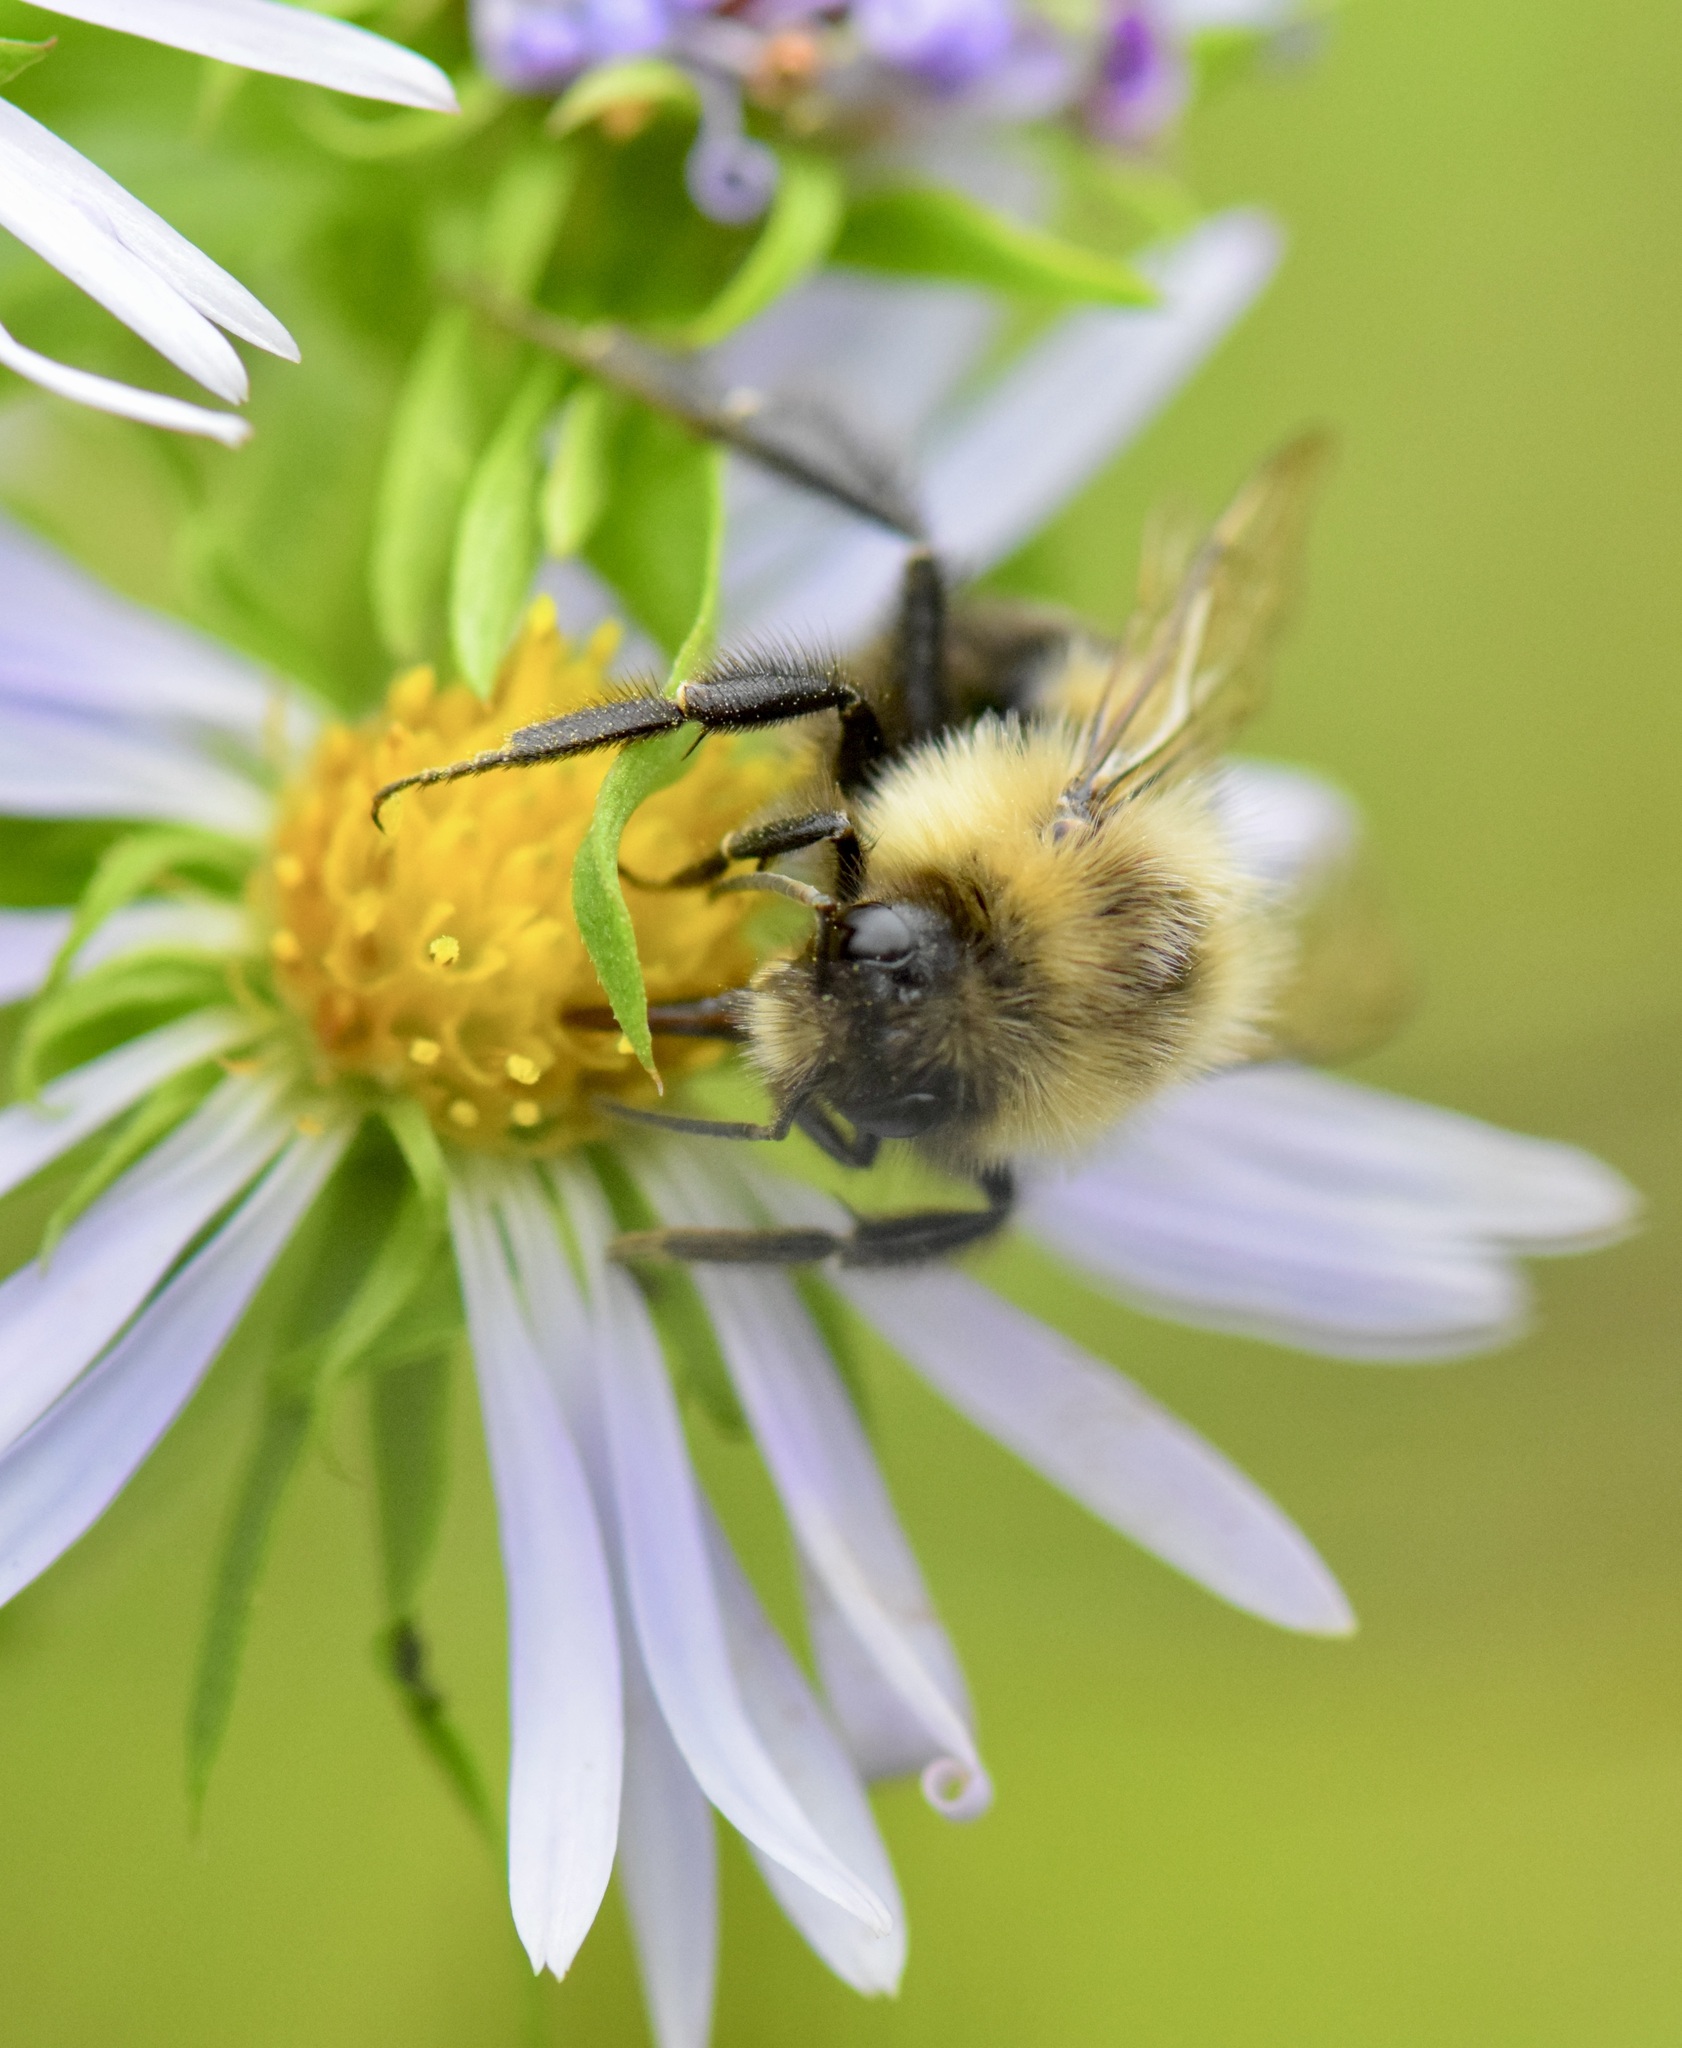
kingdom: Animalia
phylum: Arthropoda
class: Insecta
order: Hymenoptera
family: Apidae
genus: Bombus
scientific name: Bombus impatiens
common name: Common eastern bumble bee
